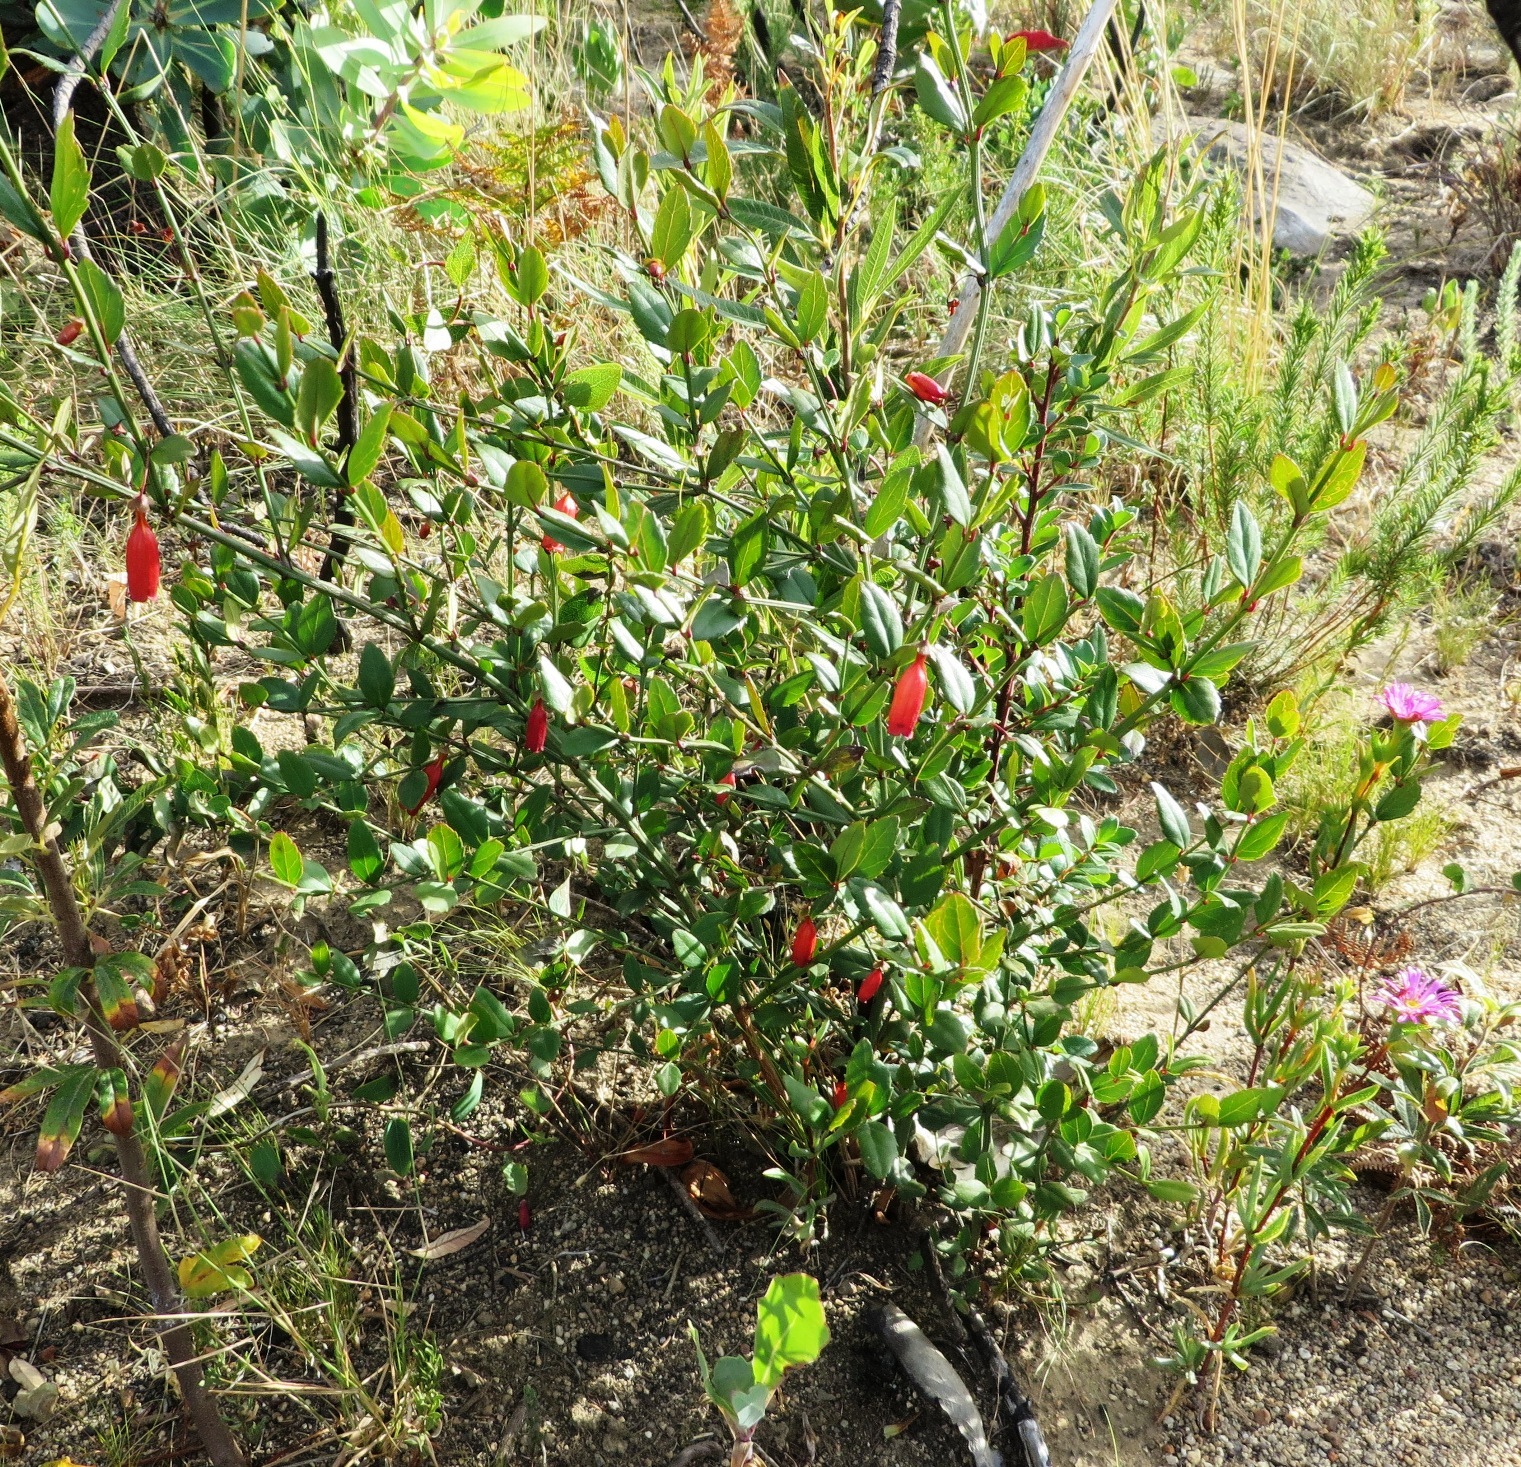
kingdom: Plantae
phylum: Tracheophyta
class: Magnoliopsida
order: Lamiales
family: Stilbaceae
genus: Halleria
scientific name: Halleria elliptica
